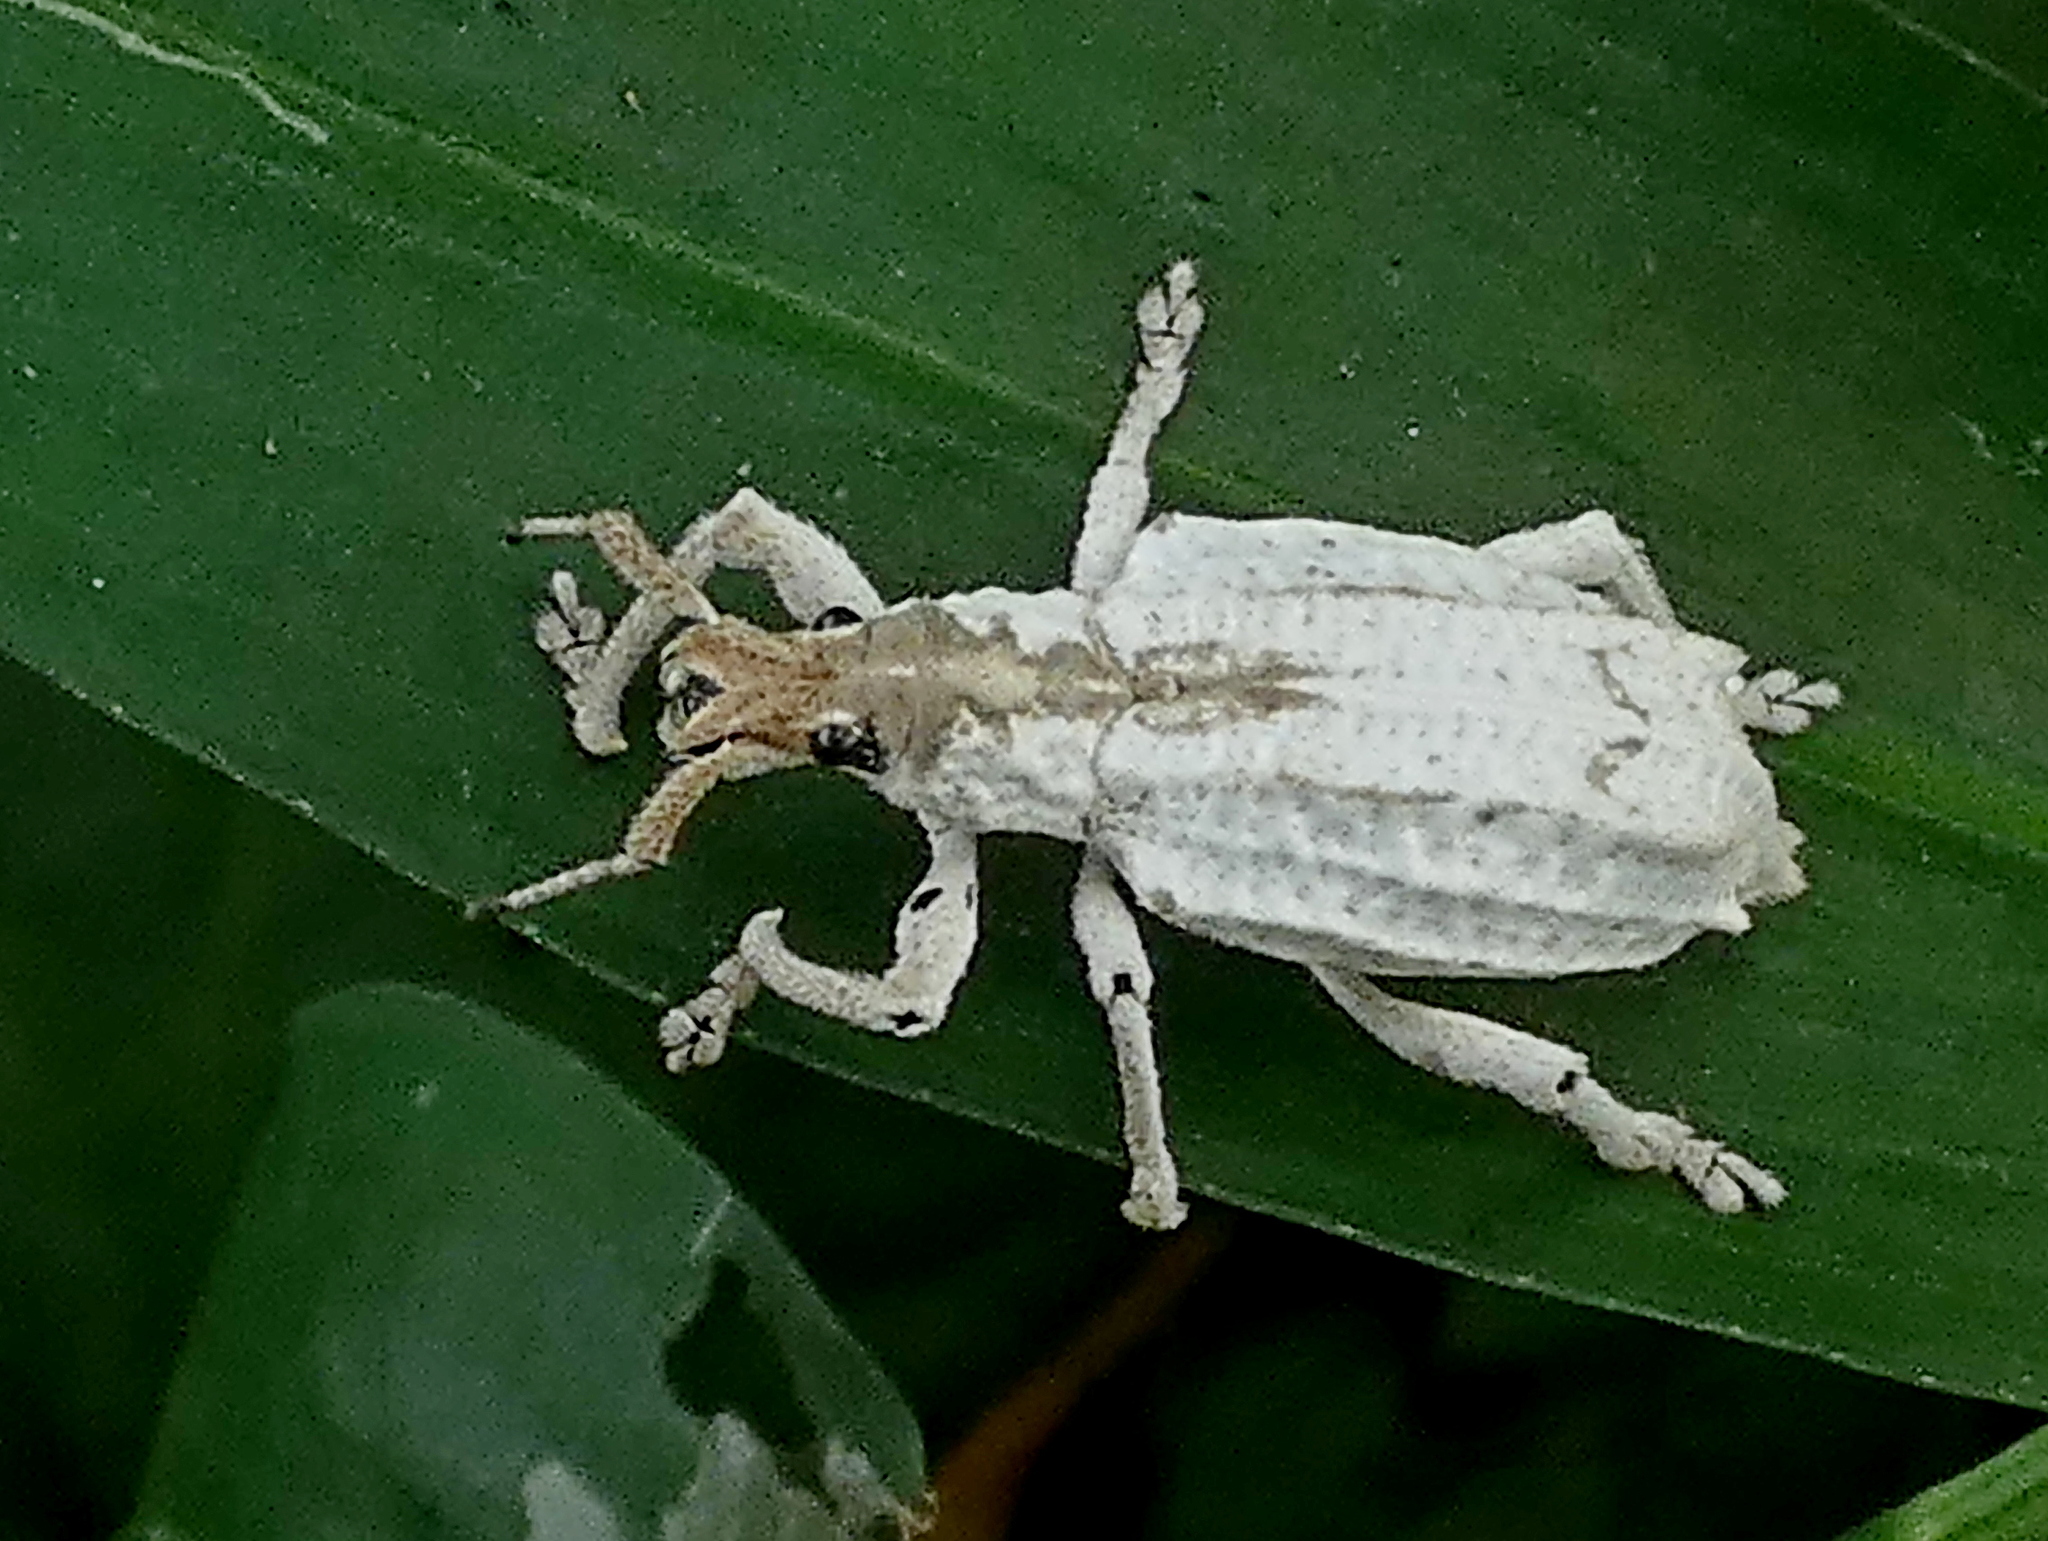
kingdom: Animalia
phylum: Arthropoda
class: Insecta
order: Coleoptera
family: Curculionidae
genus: Compsus
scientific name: Compsus niveus
